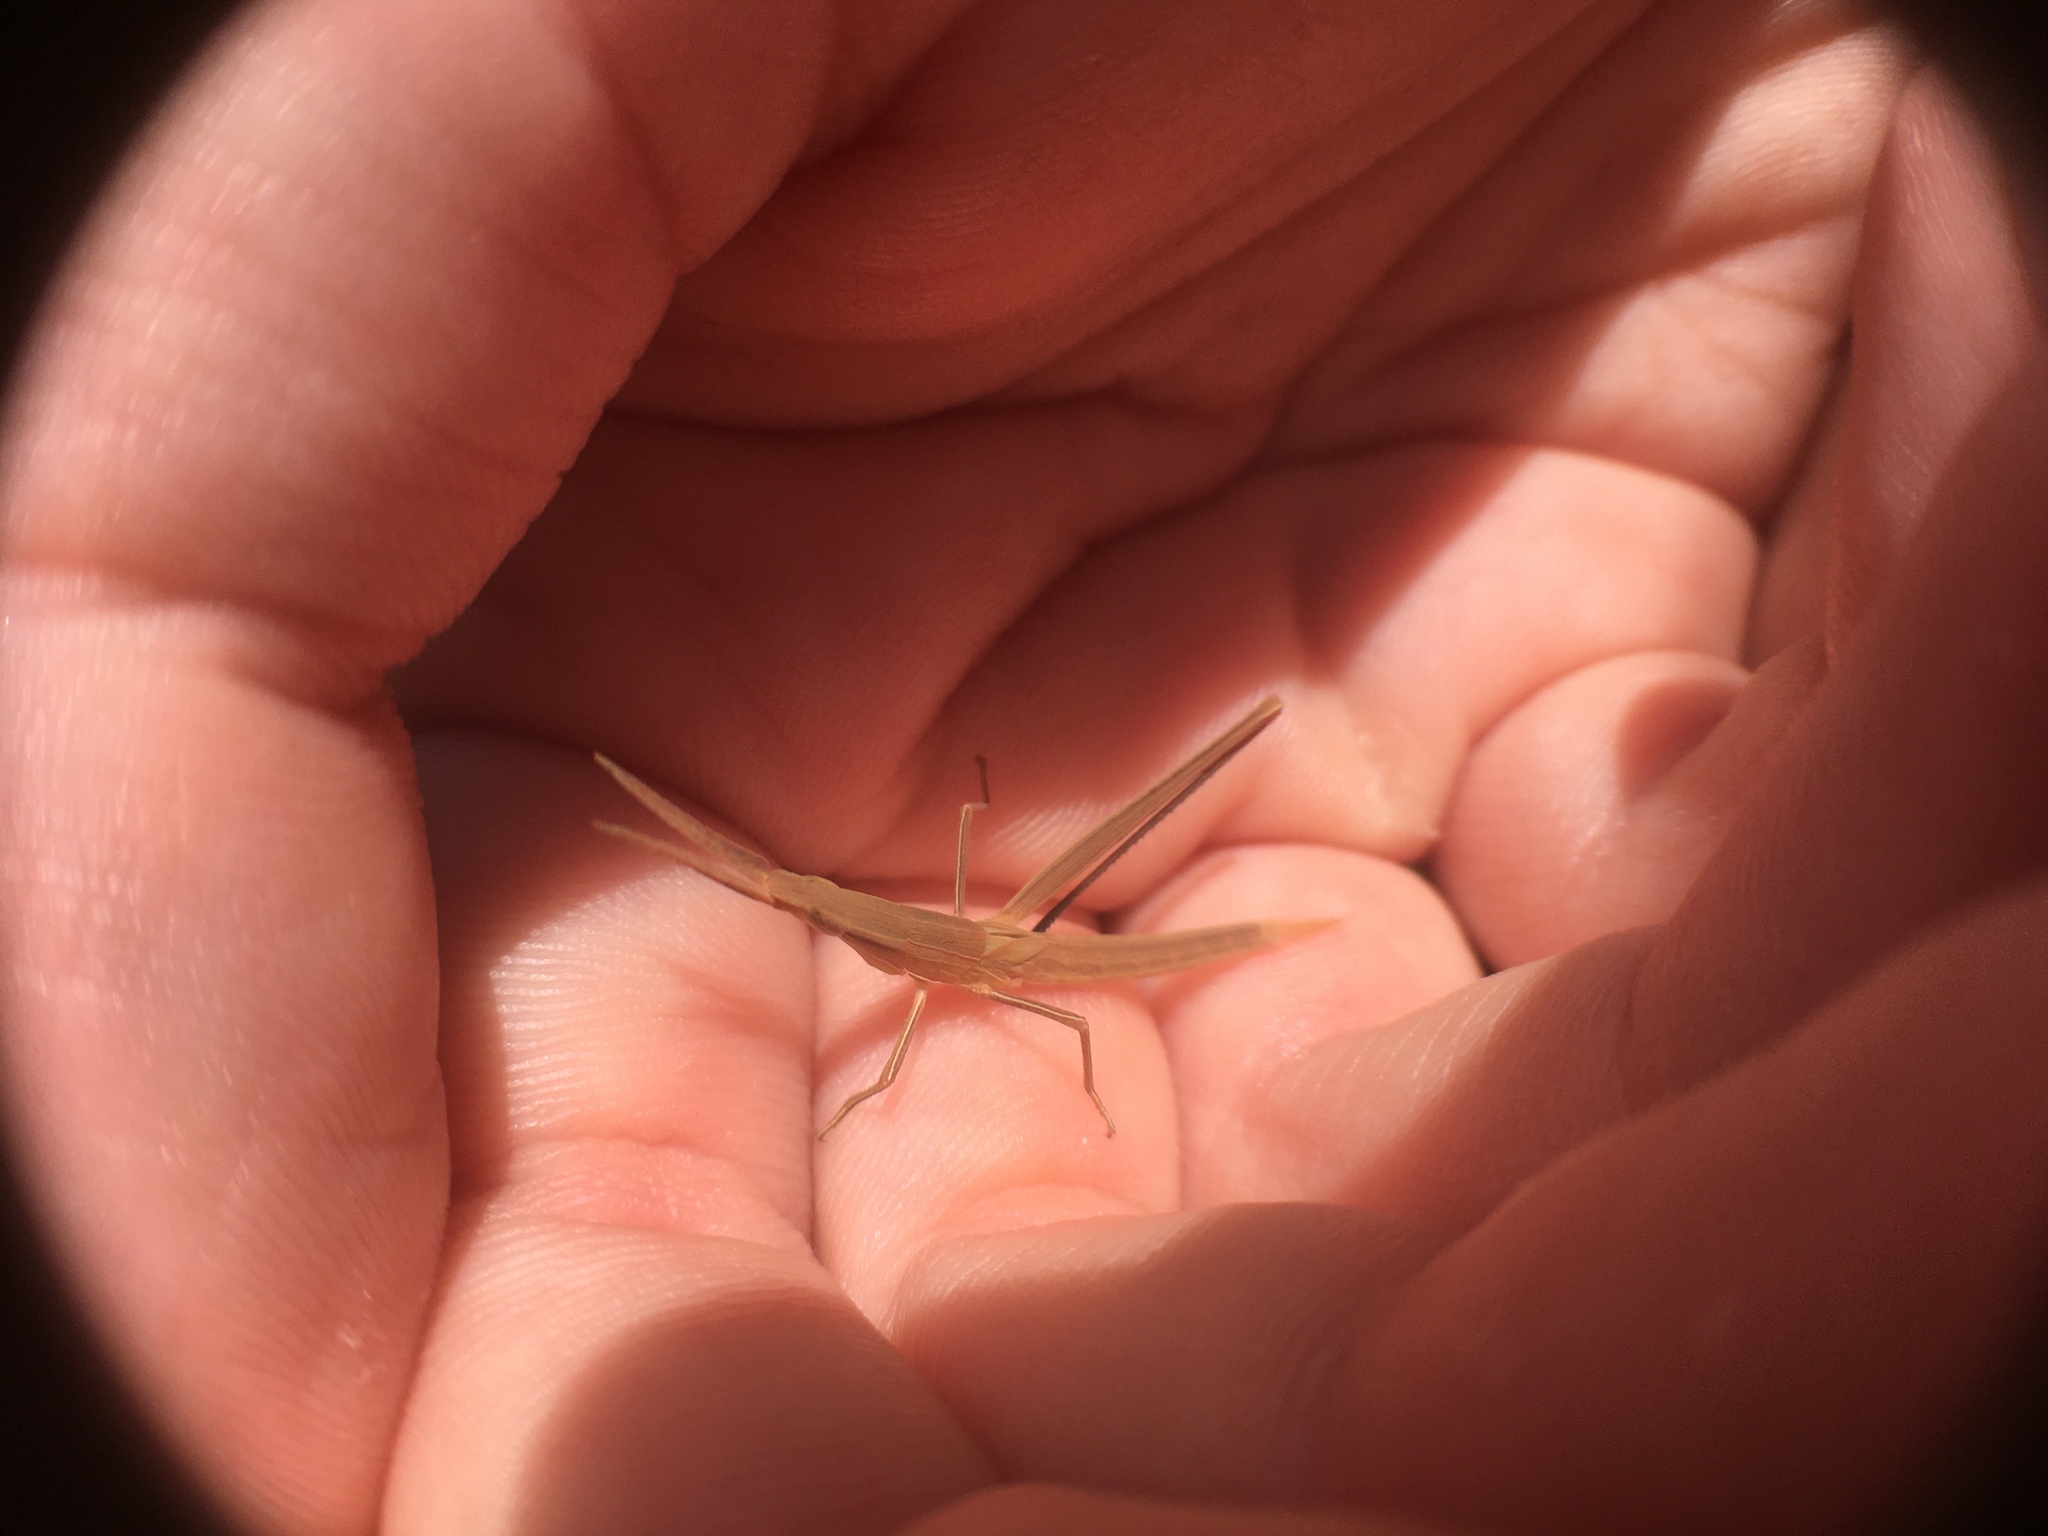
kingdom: Animalia
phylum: Arthropoda
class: Insecta
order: Orthoptera
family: Acrididae
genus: Acrida
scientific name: Acrida conica
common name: Giant green slantface
